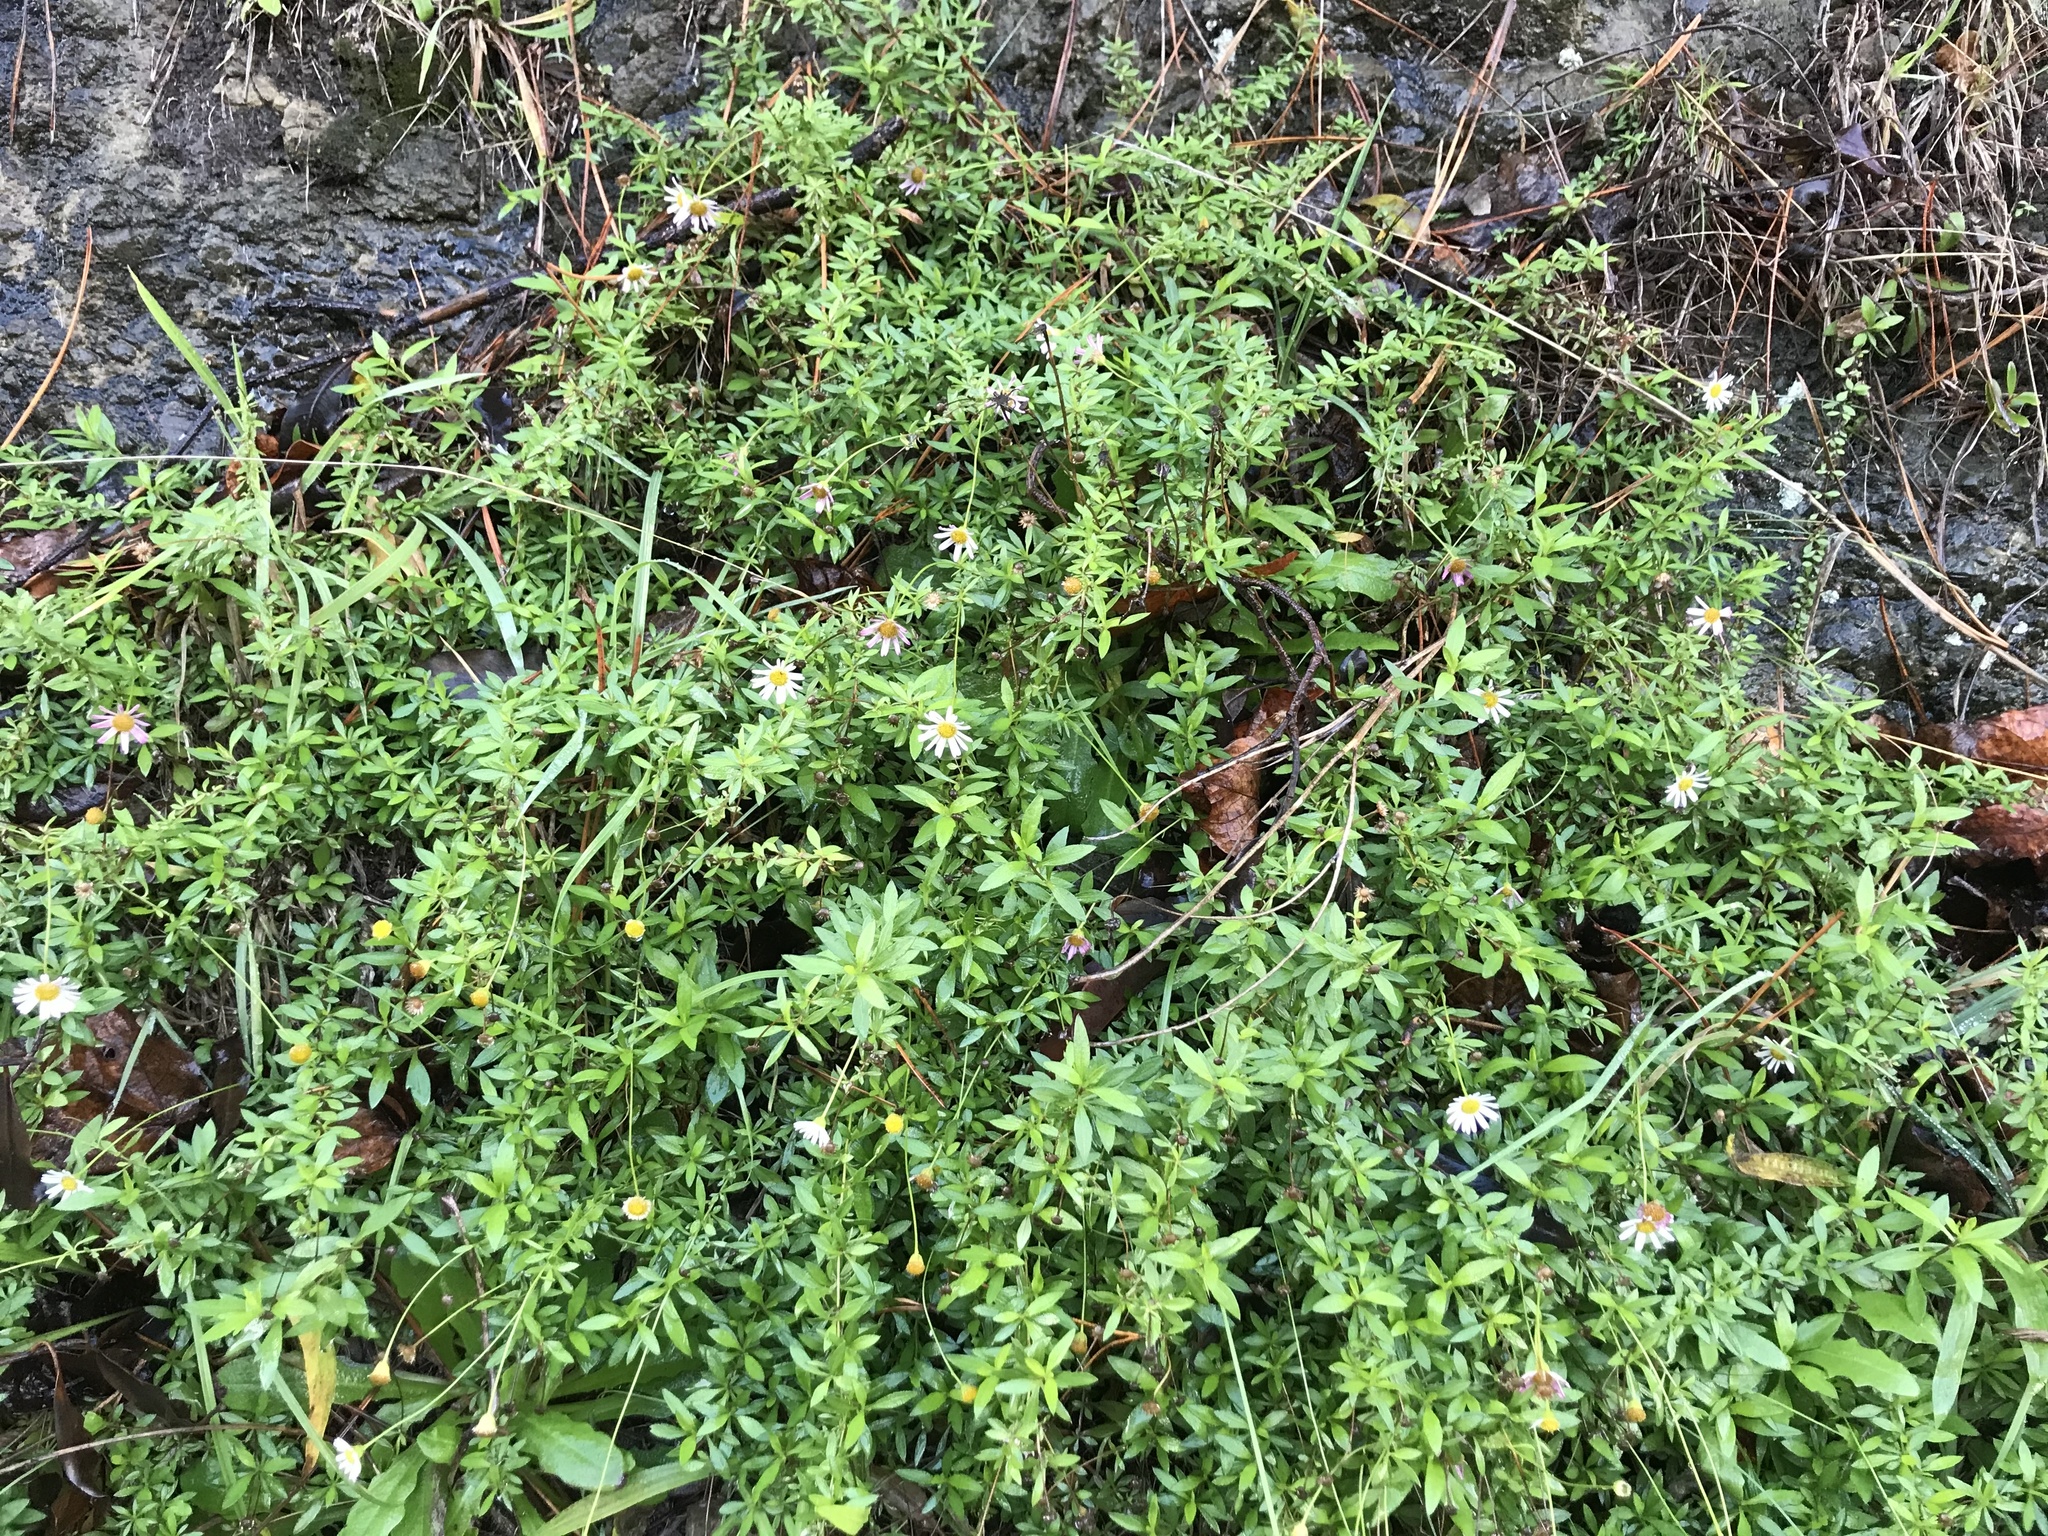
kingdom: Plantae
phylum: Tracheophyta
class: Magnoliopsida
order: Asterales
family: Asteraceae
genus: Erigeron
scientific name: Erigeron karvinskianus
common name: Mexican fleabane
